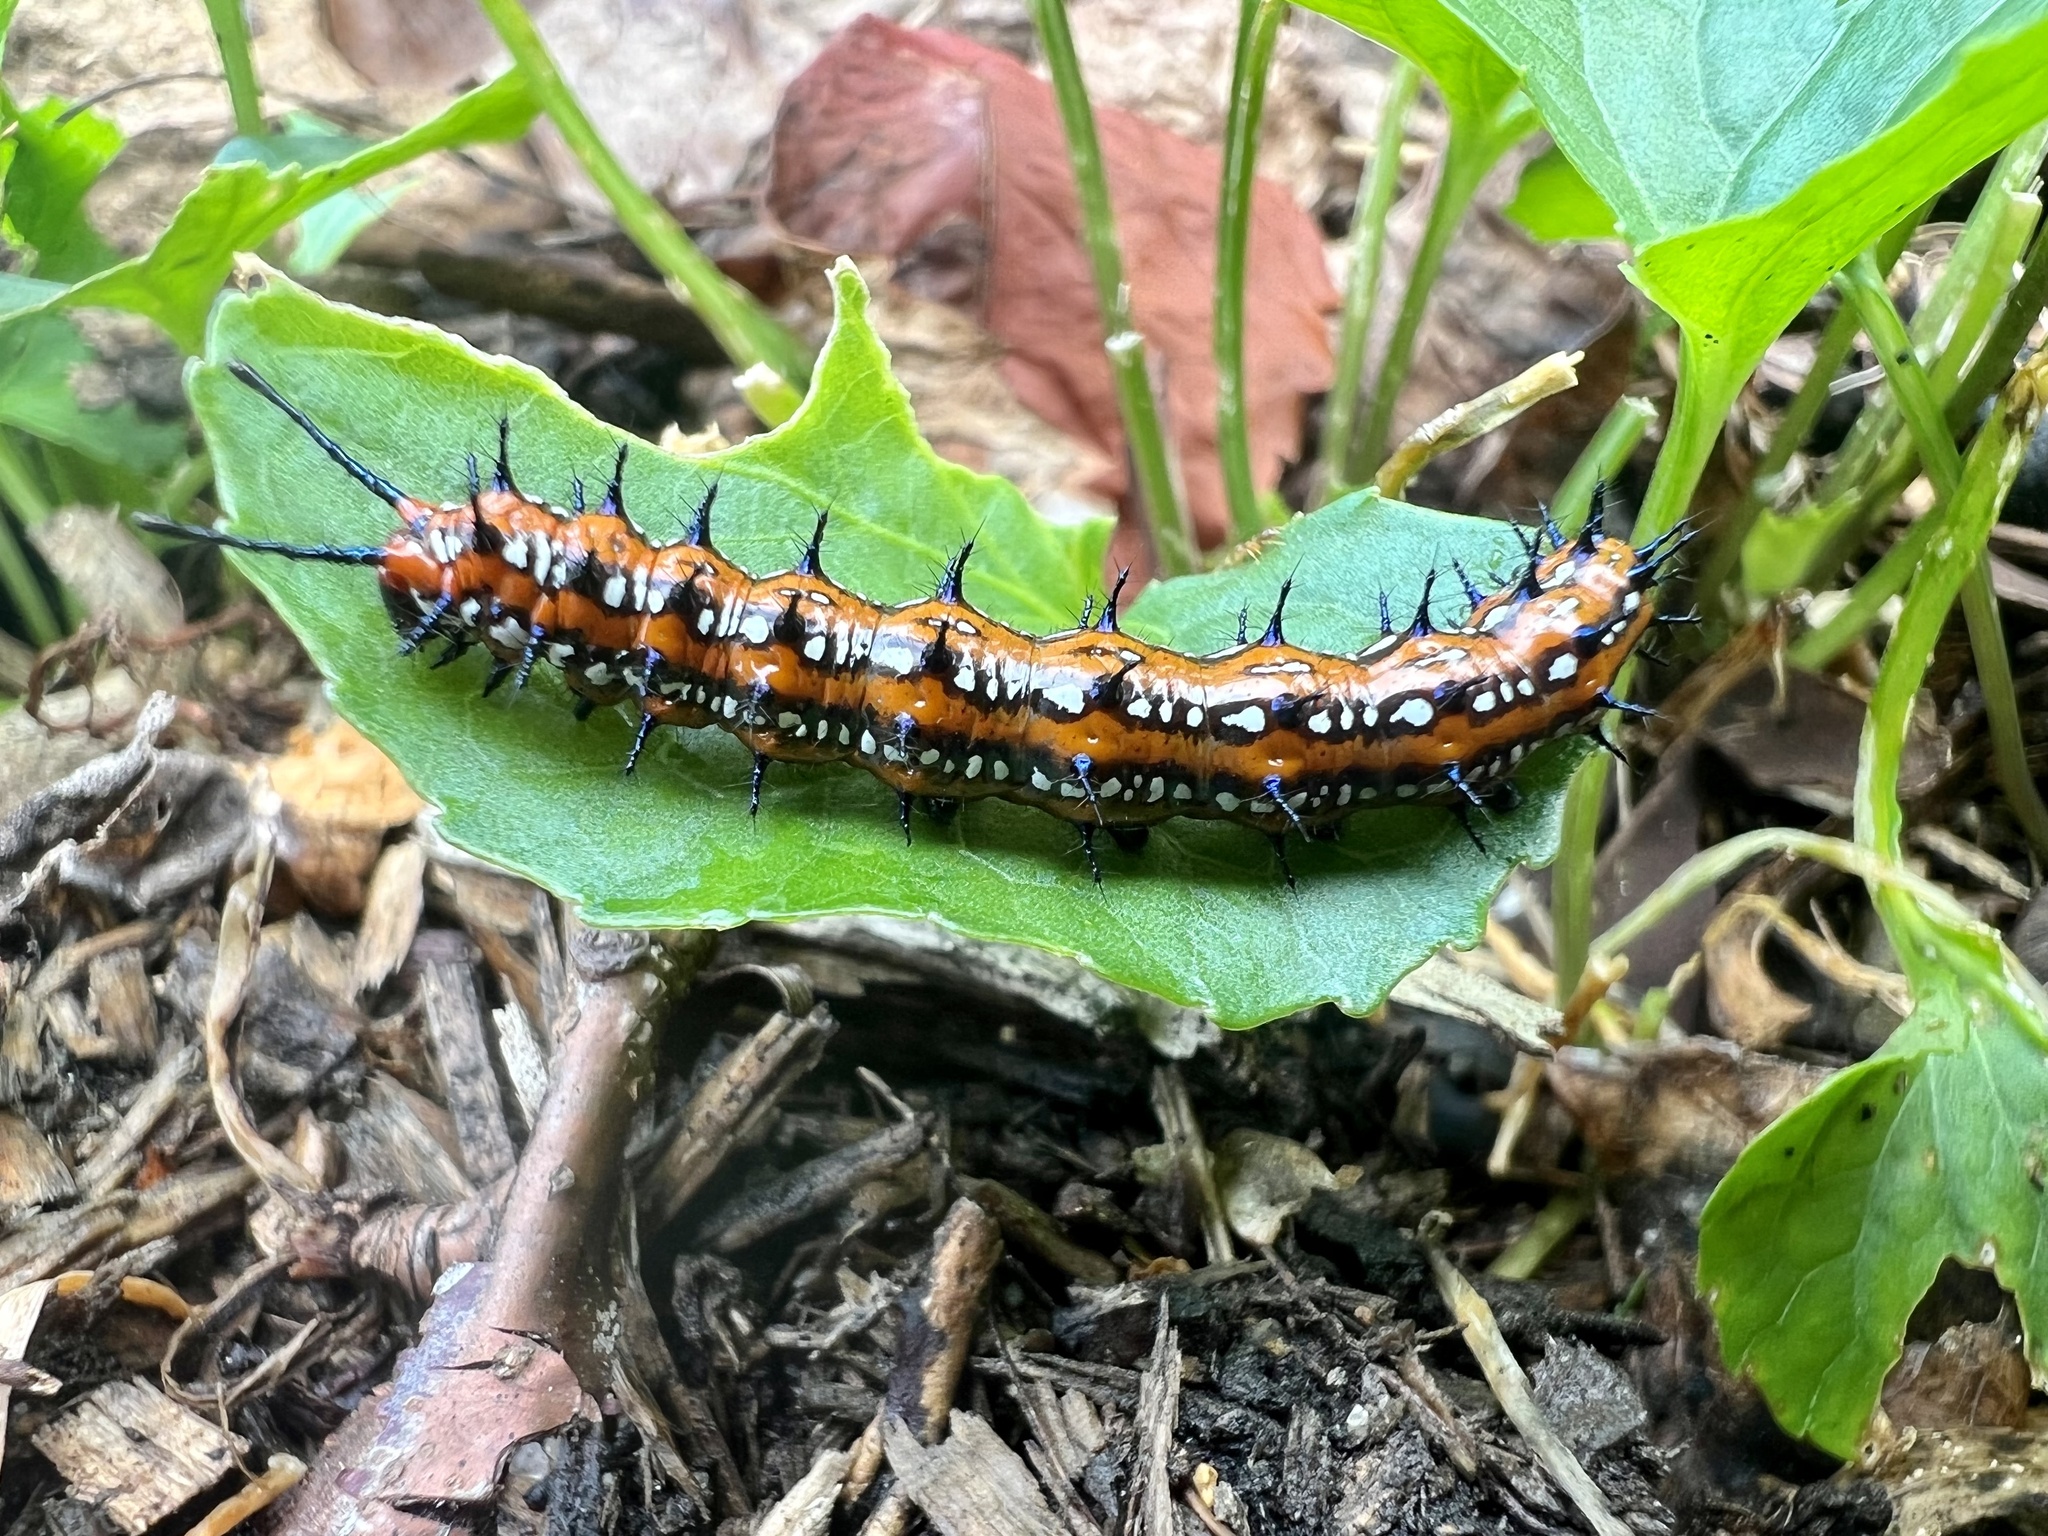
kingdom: Animalia
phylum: Arthropoda
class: Insecta
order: Lepidoptera
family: Nymphalidae
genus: Euptoieta
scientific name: Euptoieta claudia
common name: Variegated fritillary
